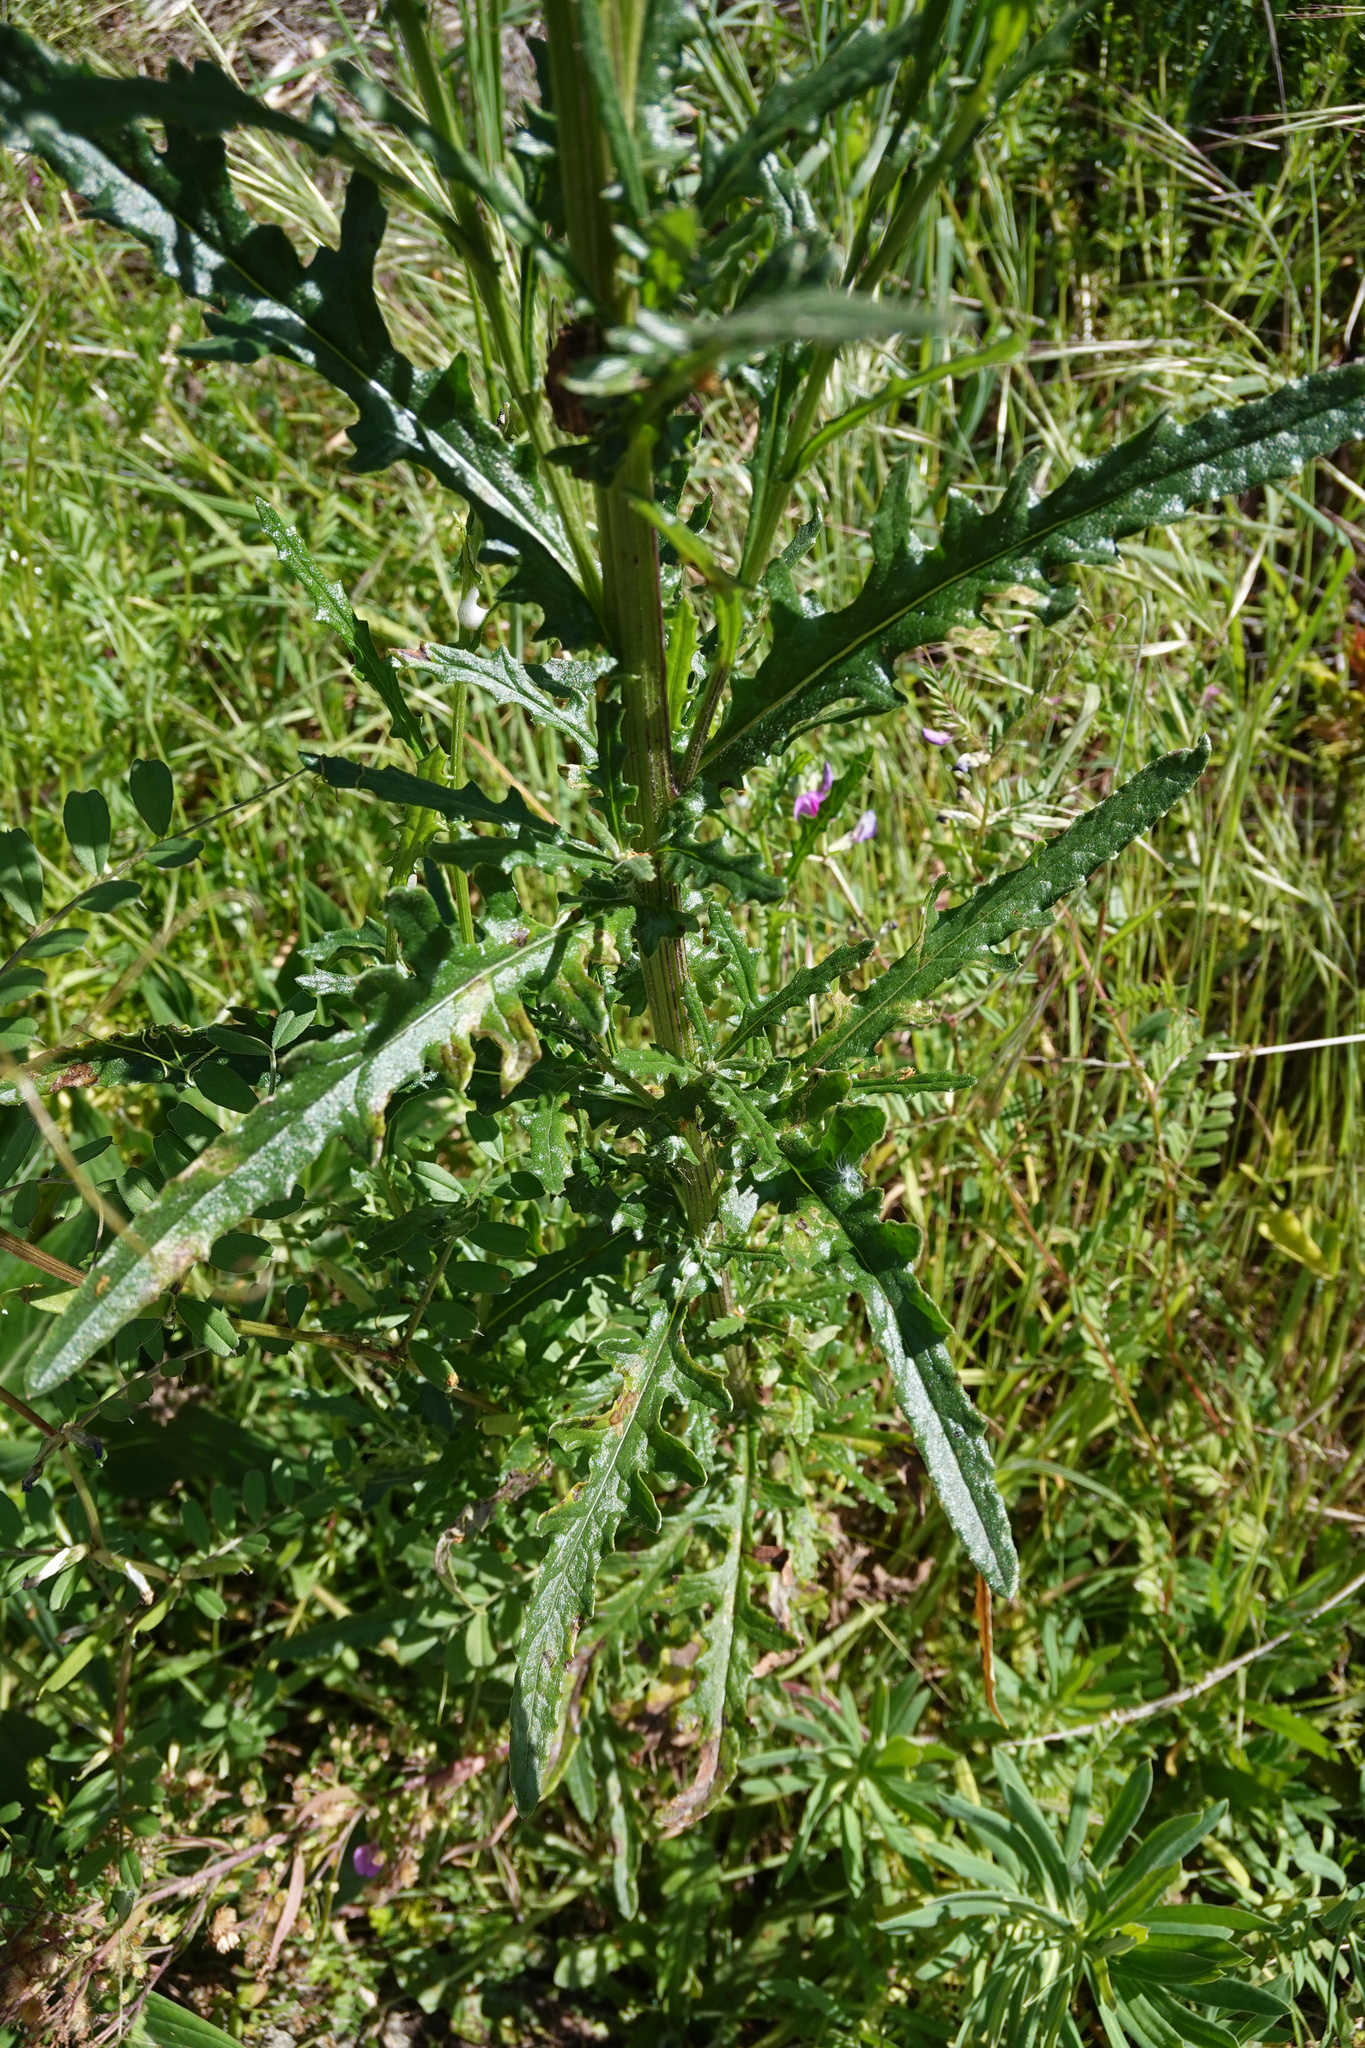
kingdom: Plantae
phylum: Tracheophyta
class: Magnoliopsida
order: Asterales
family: Asteraceae
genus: Senecio
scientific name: Senecio hispidulus
